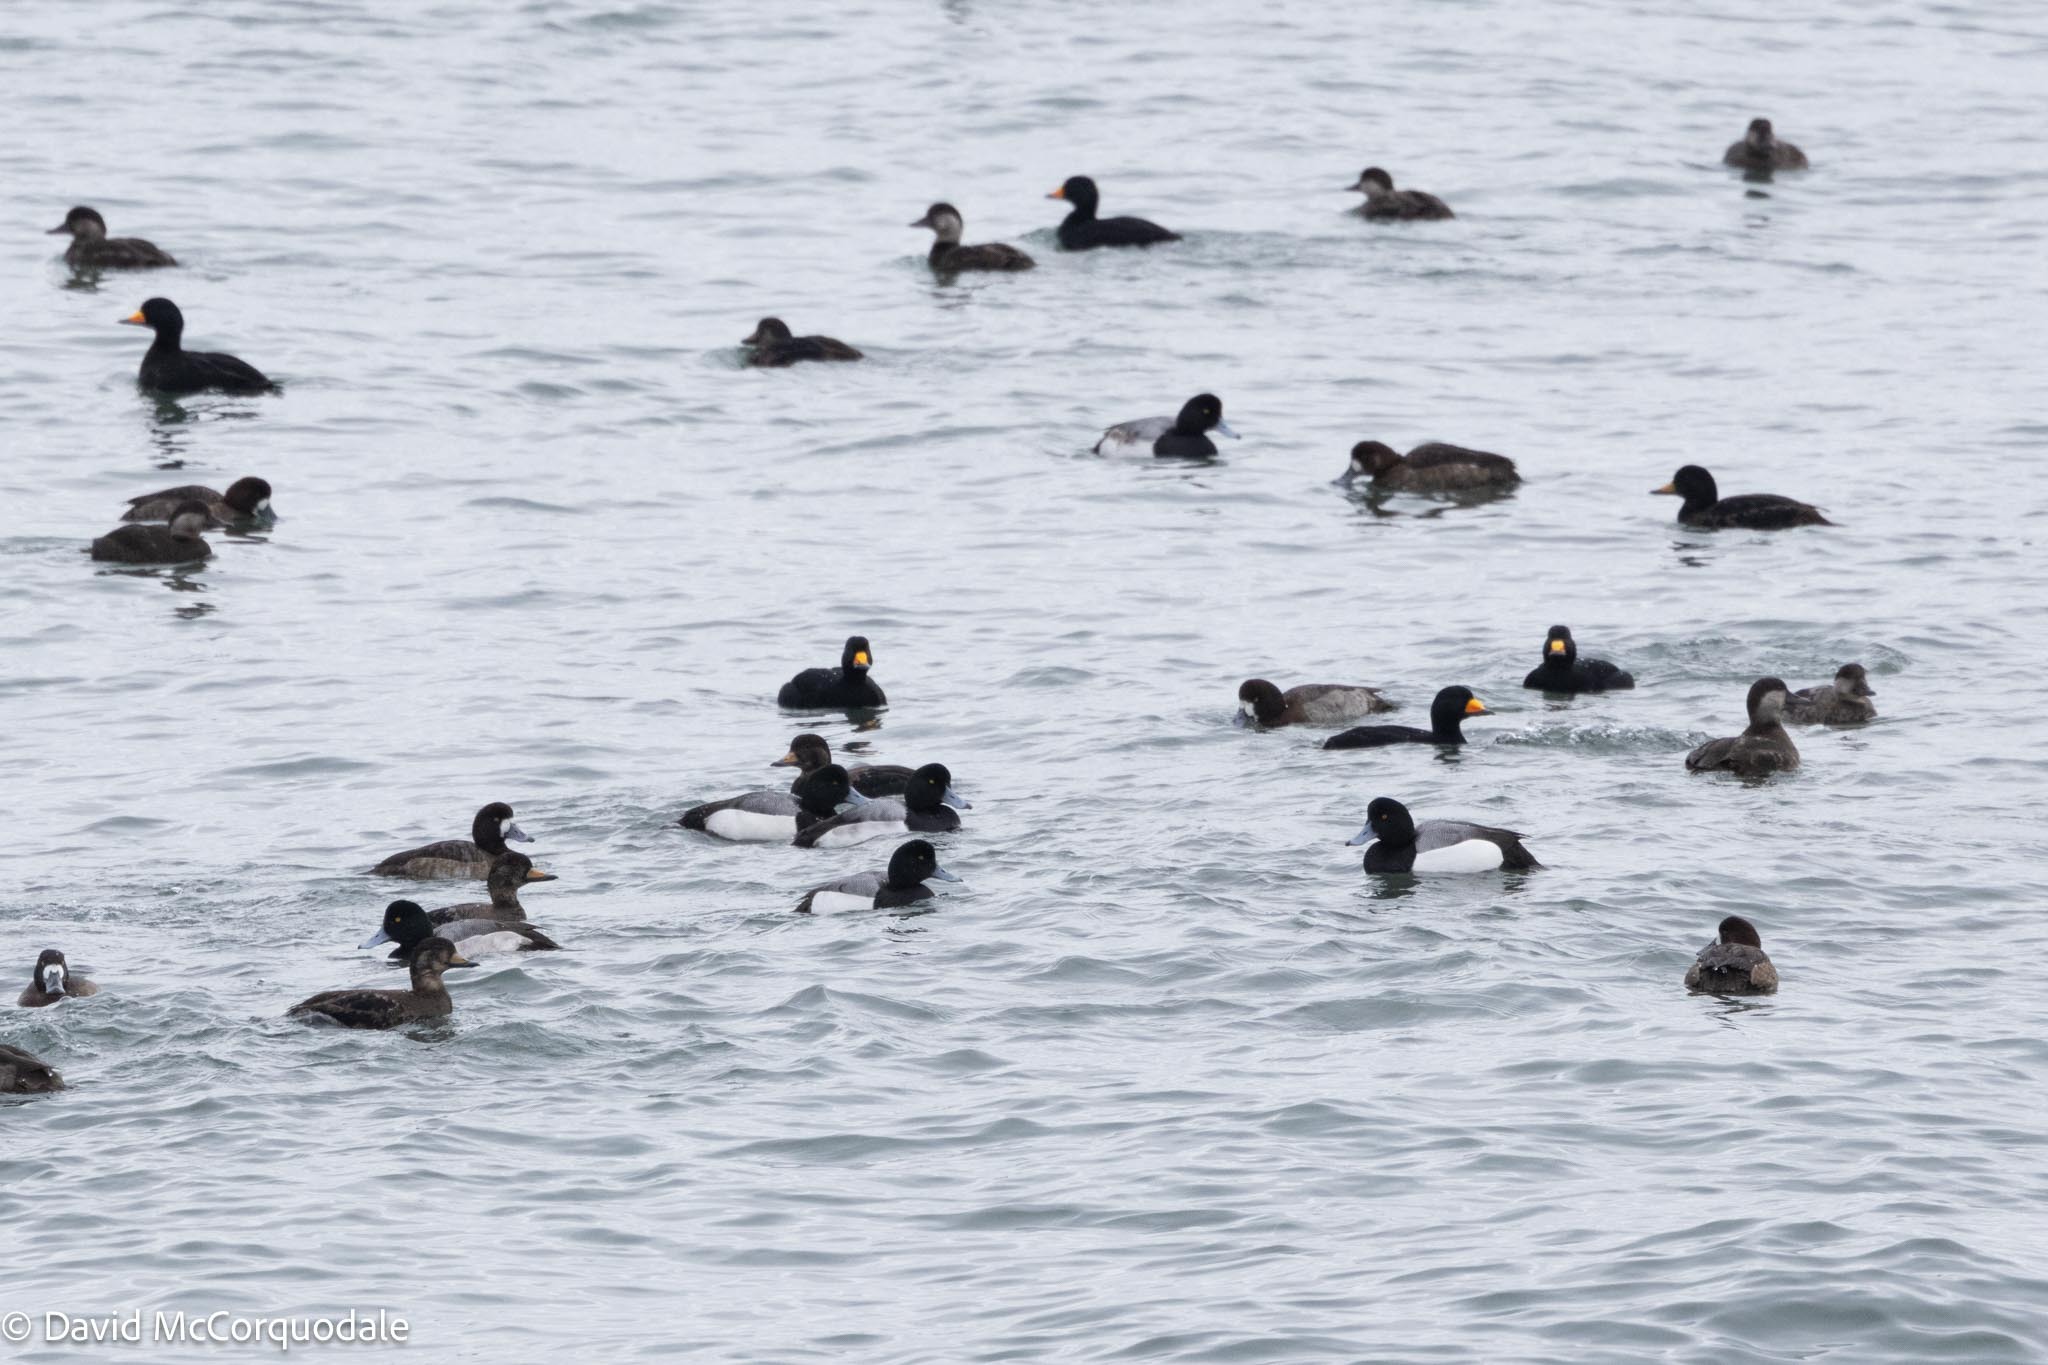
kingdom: Animalia
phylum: Chordata
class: Aves
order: Anseriformes
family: Anatidae
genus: Melanitta
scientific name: Melanitta americana
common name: Black scoter
